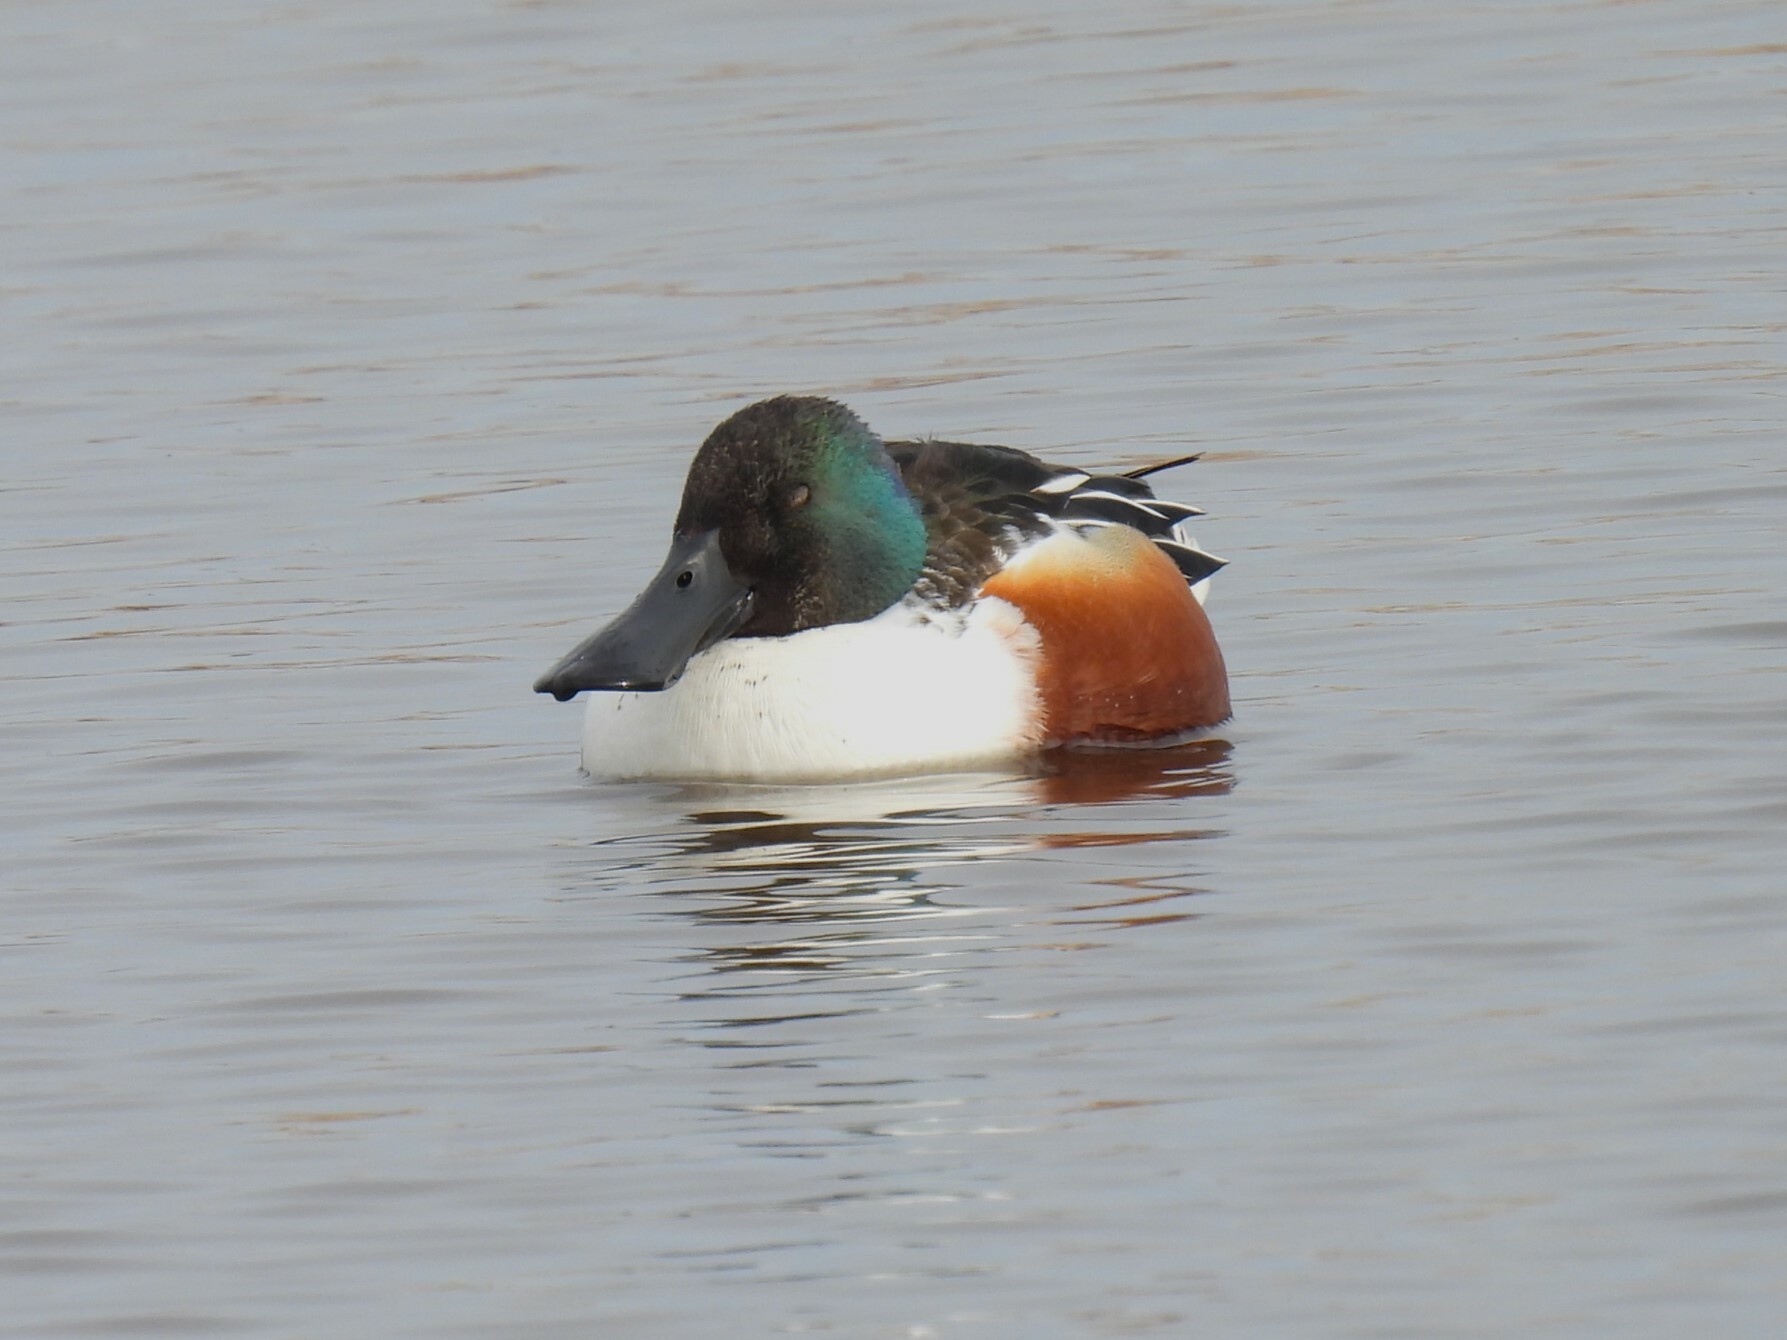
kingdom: Animalia
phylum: Chordata
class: Aves
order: Anseriformes
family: Anatidae
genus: Spatula
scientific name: Spatula clypeata
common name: Northern shoveler
